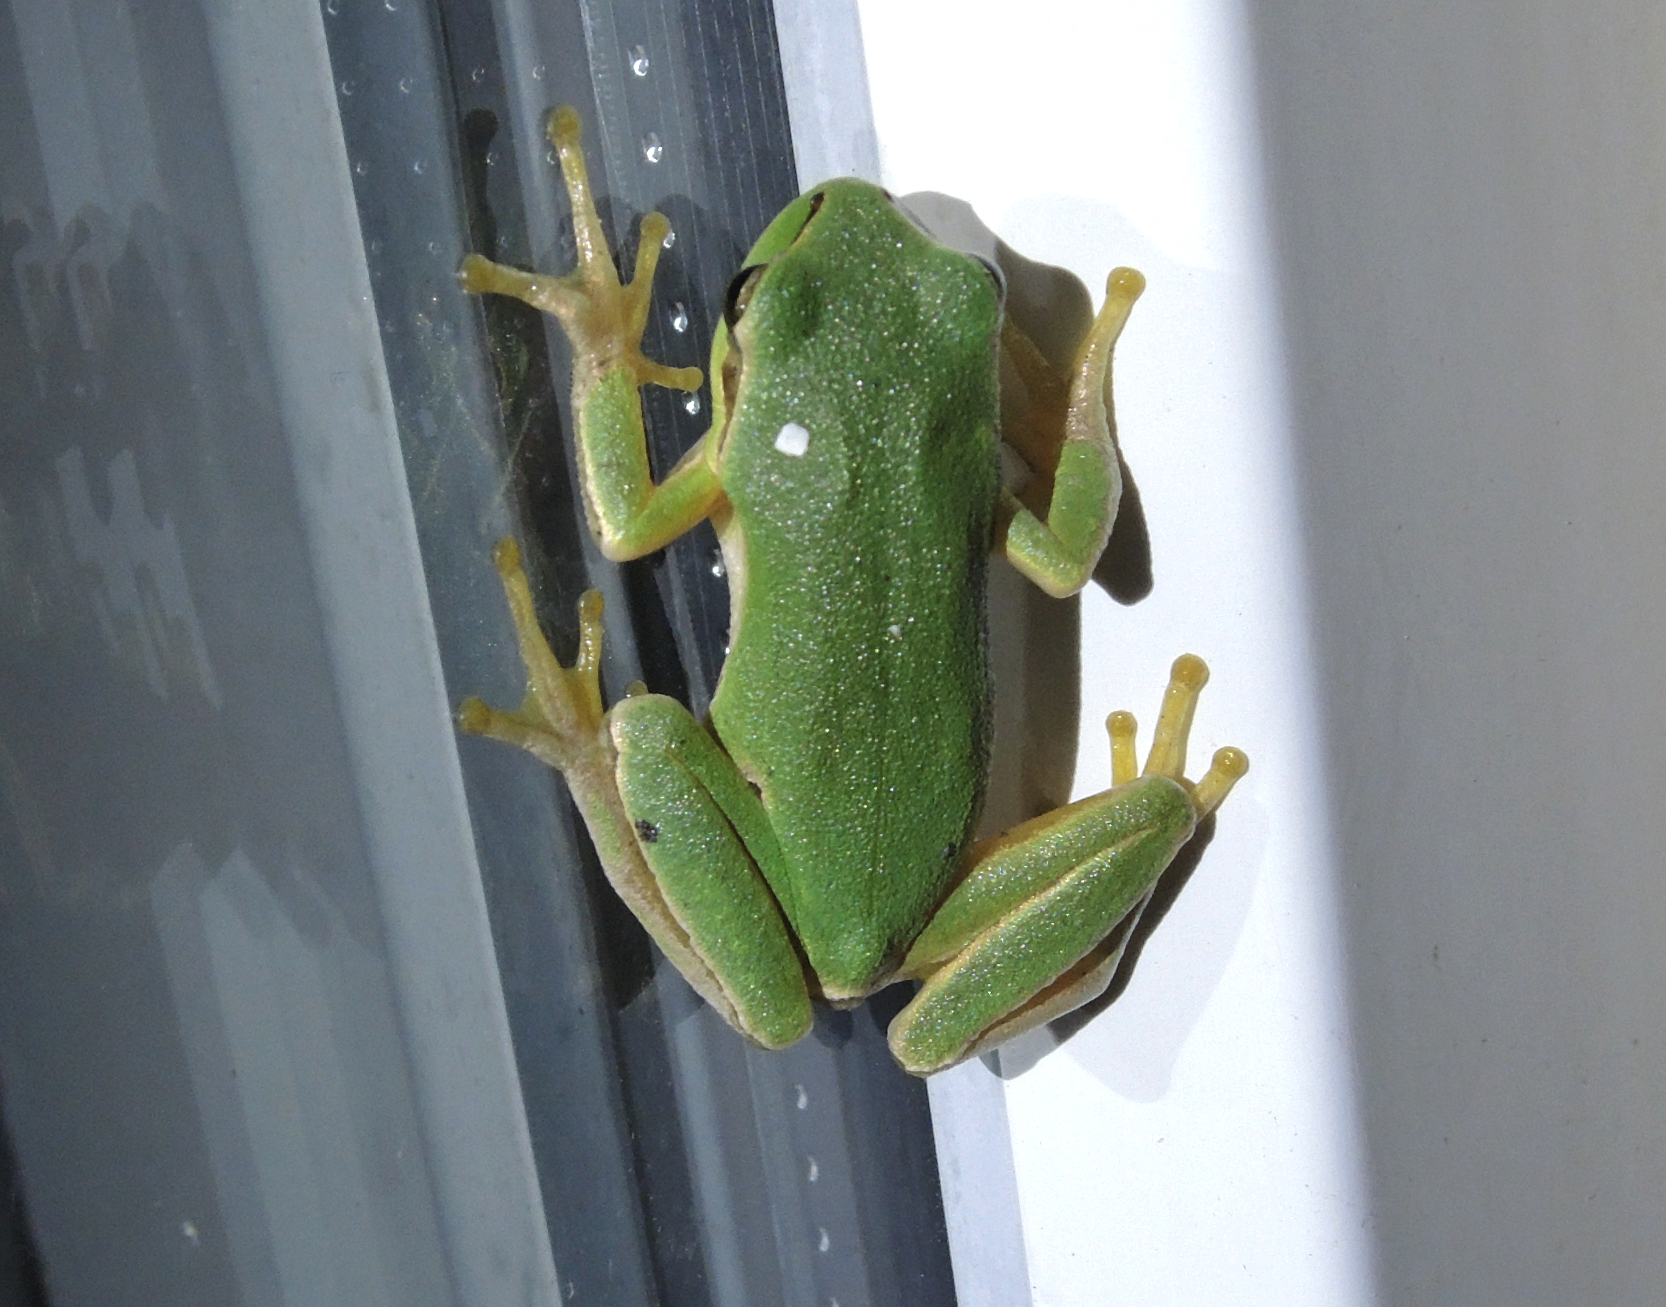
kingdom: Animalia
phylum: Chordata
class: Amphibia
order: Anura
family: Hylidae
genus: Hyla
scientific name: Hyla orientalis
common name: Caucasian treefrog
